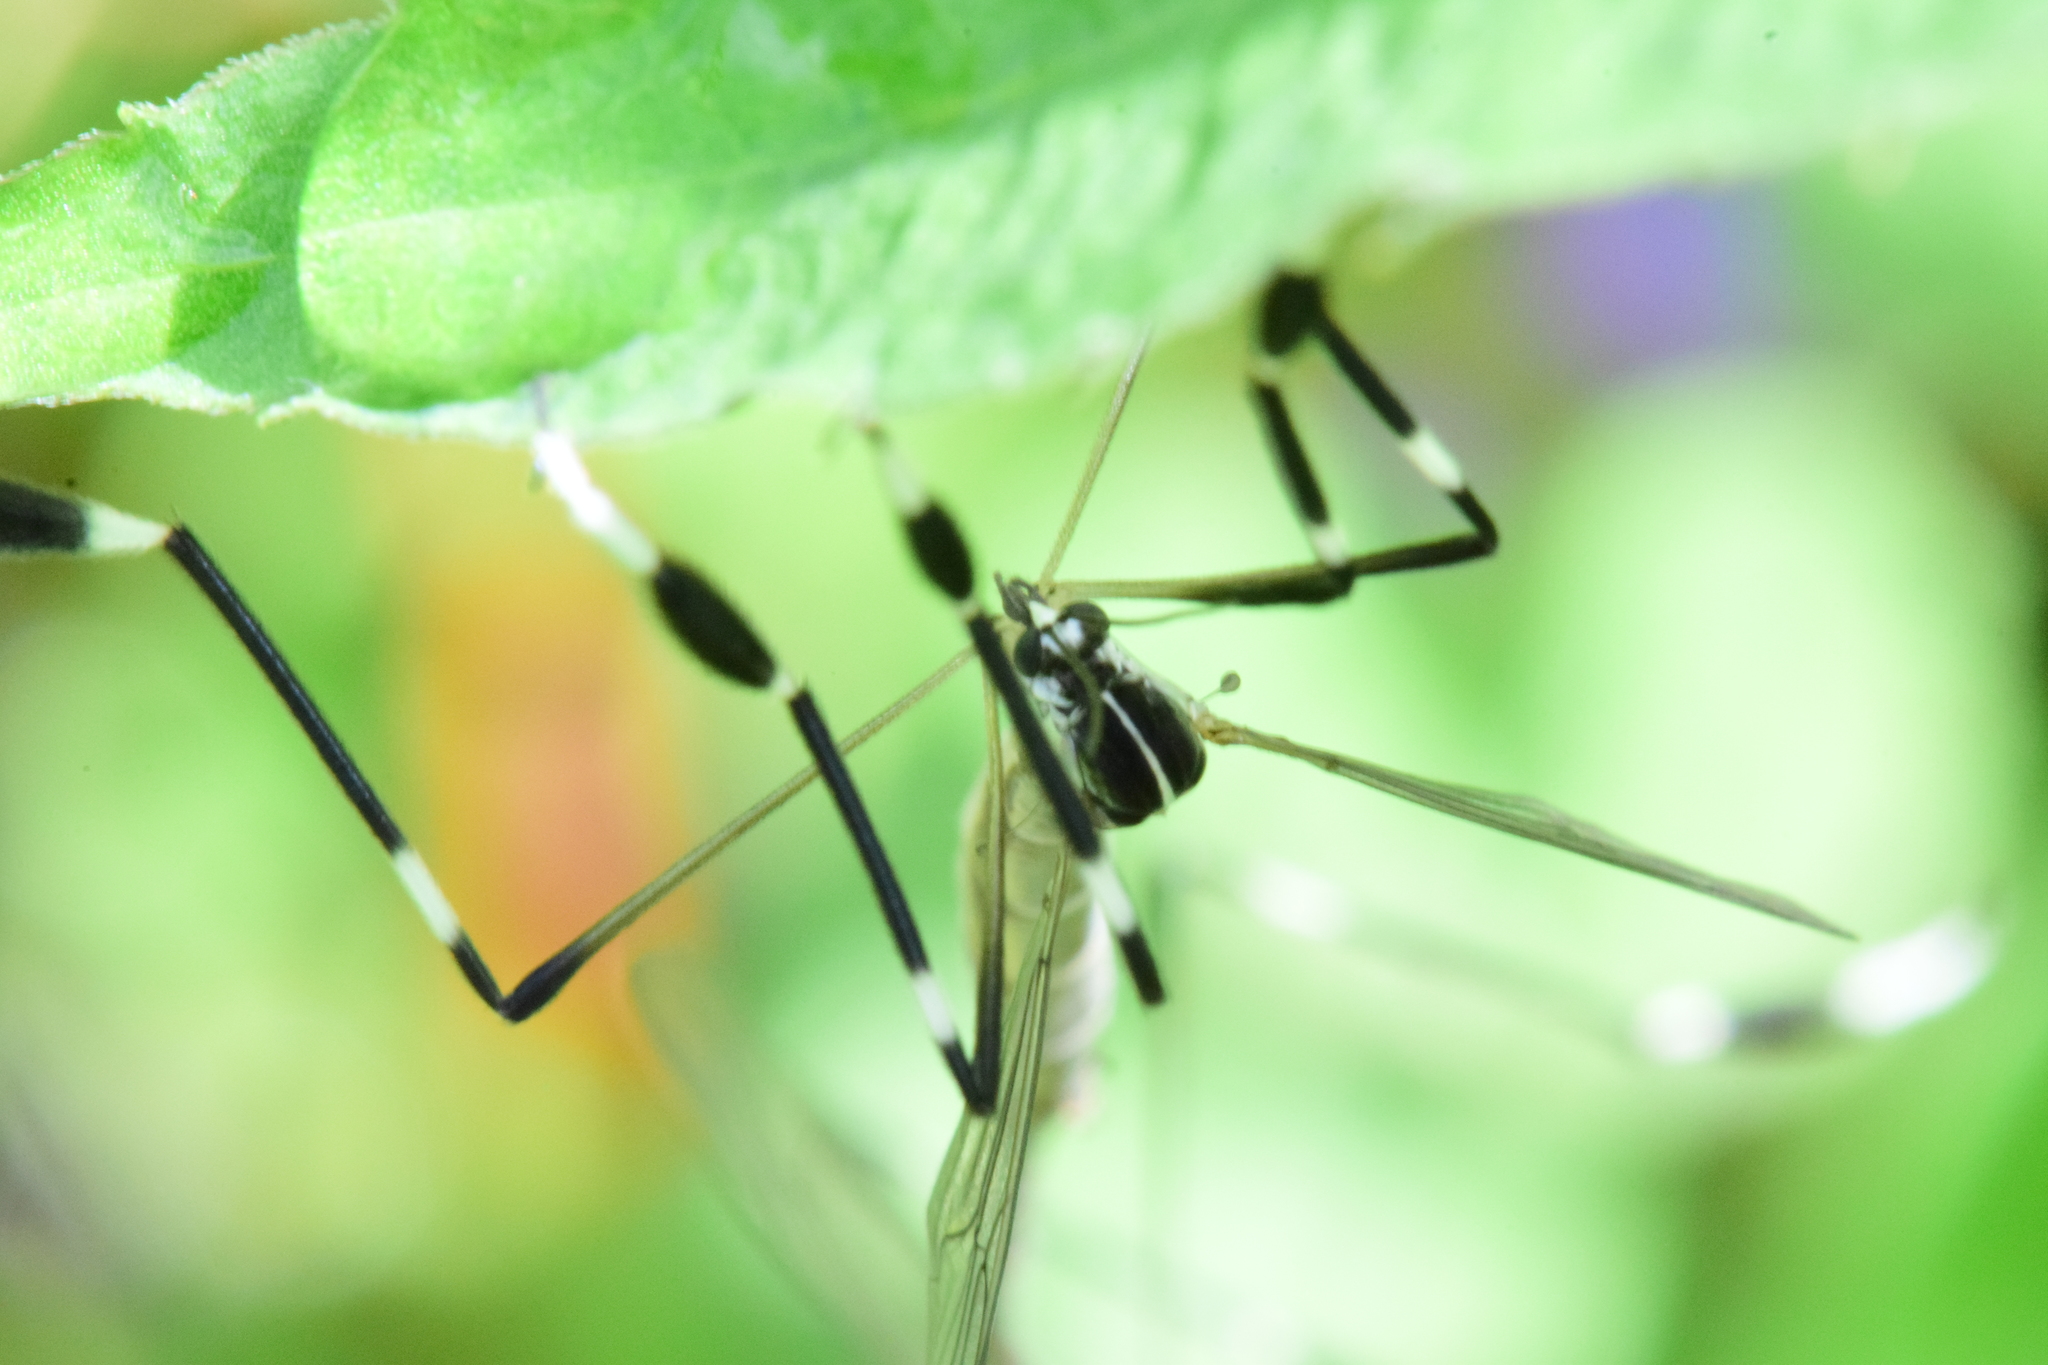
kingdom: Animalia
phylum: Arthropoda
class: Insecta
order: Diptera
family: Ptychopteridae
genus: Bittacomorpha
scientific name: Bittacomorpha clavipes
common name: Eastern phantom crane fly
